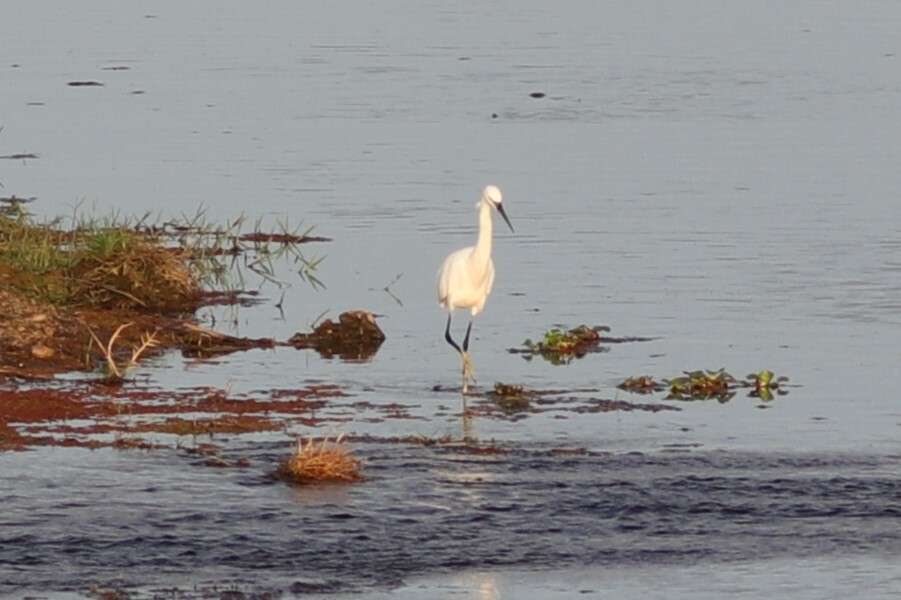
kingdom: Animalia
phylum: Chordata
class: Aves
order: Pelecaniformes
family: Ardeidae
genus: Egretta
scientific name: Egretta garzetta
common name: Little egret
